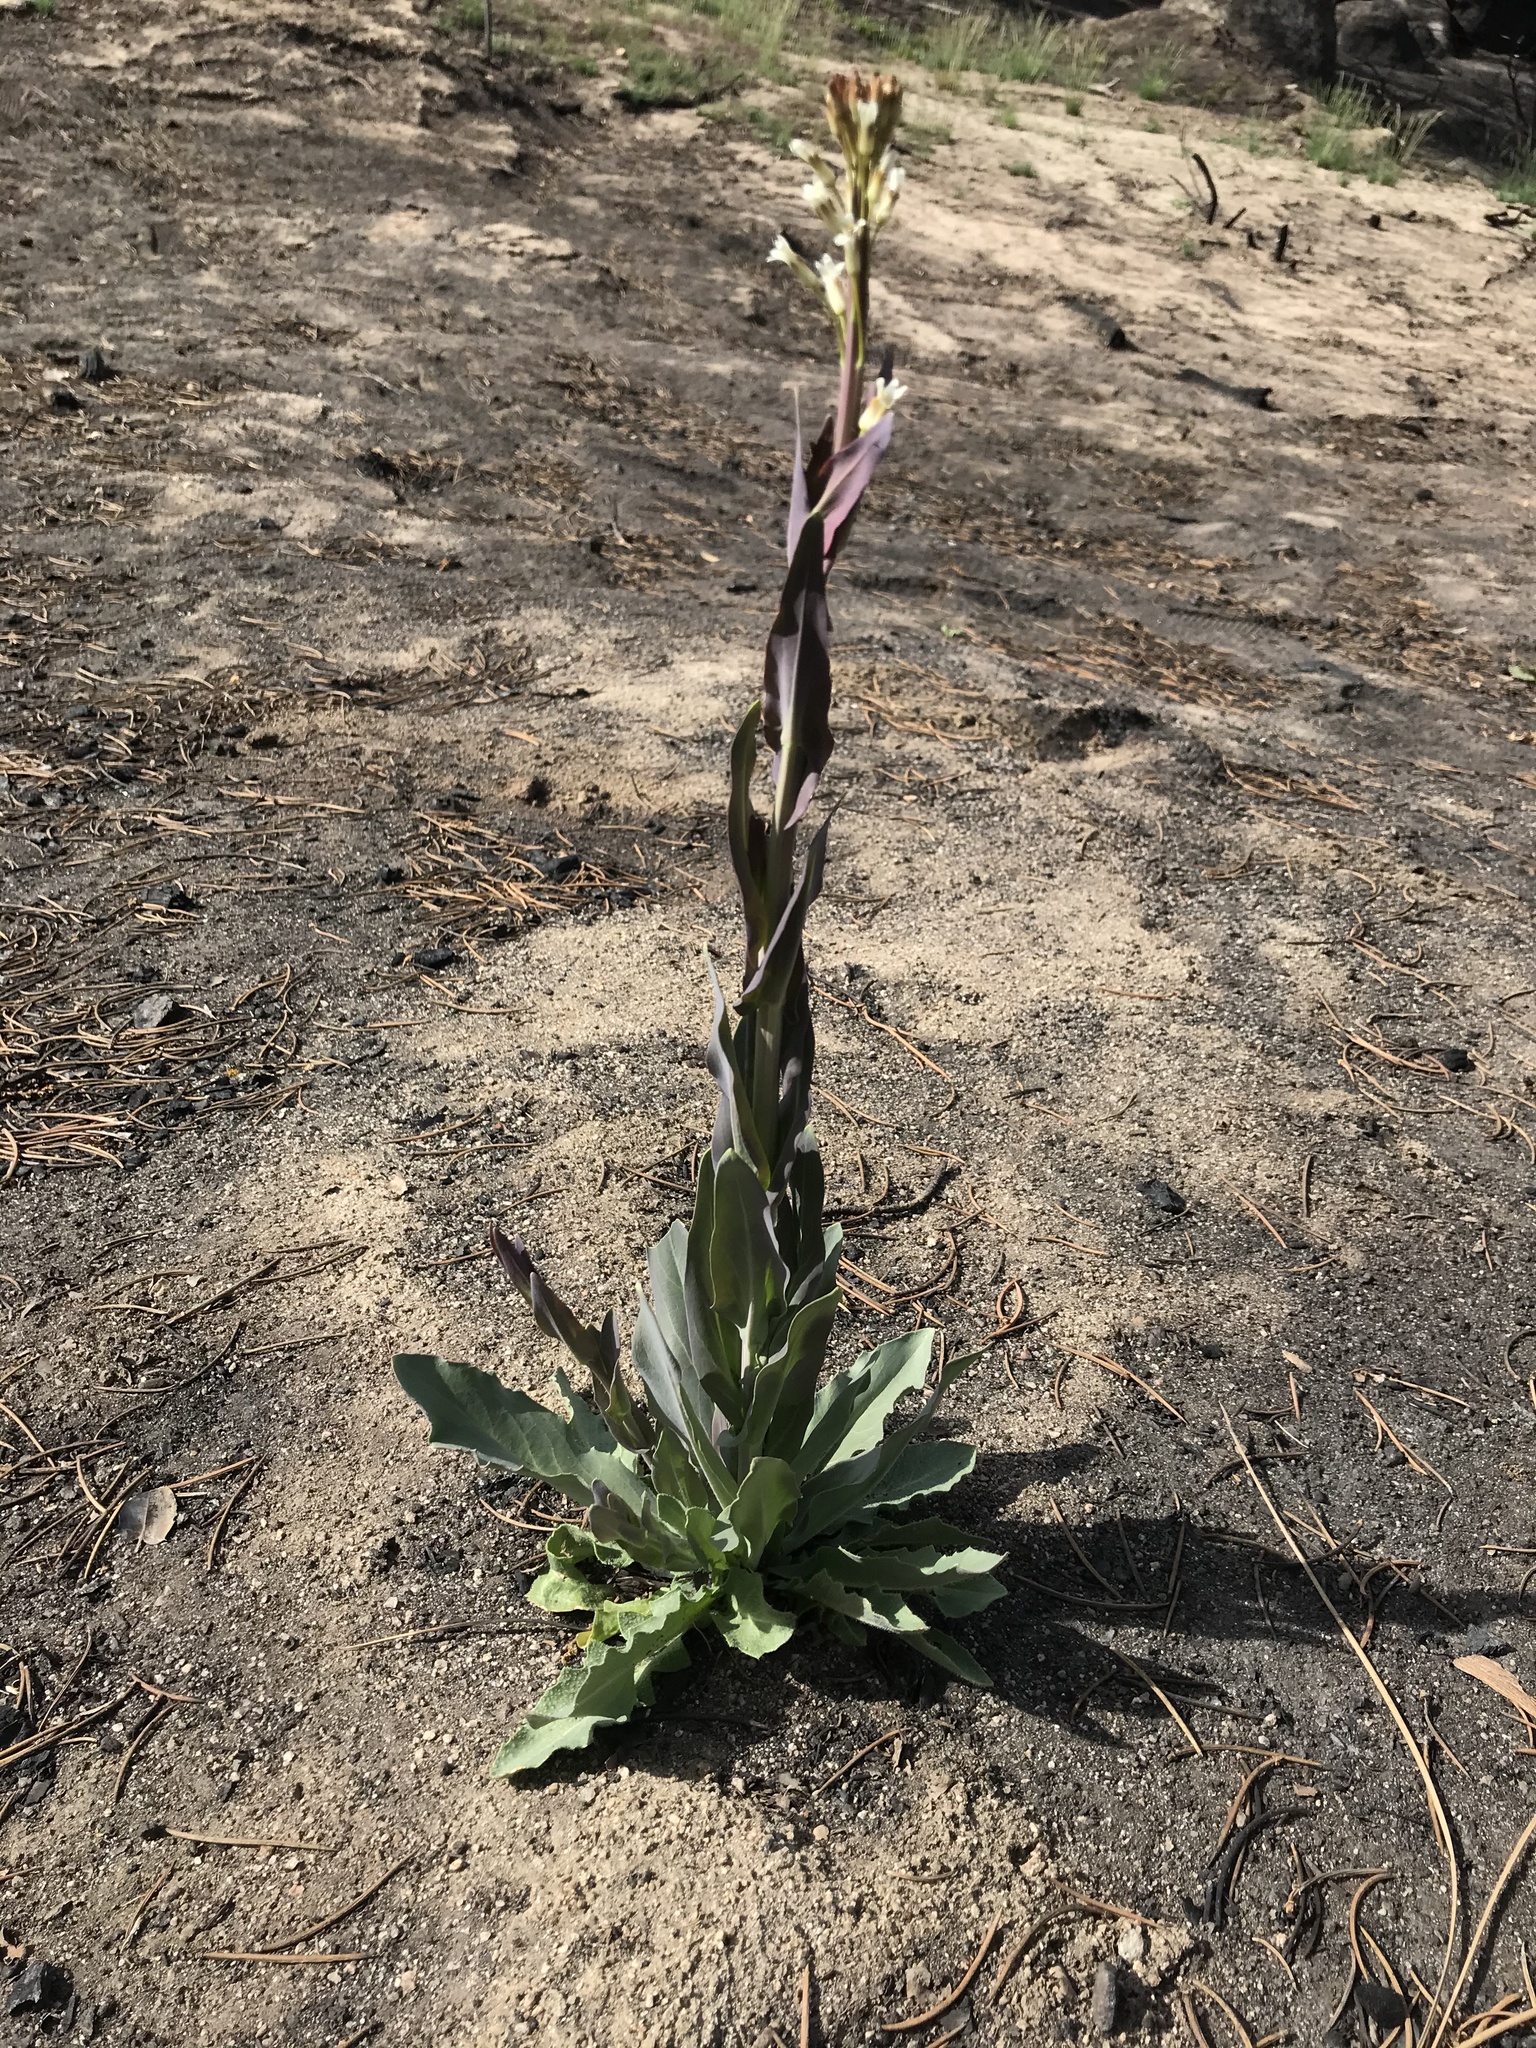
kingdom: Plantae
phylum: Tracheophyta
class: Magnoliopsida
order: Brassicales
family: Brassicaceae
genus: Turritis
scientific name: Turritis glabra
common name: Tower rockcress
